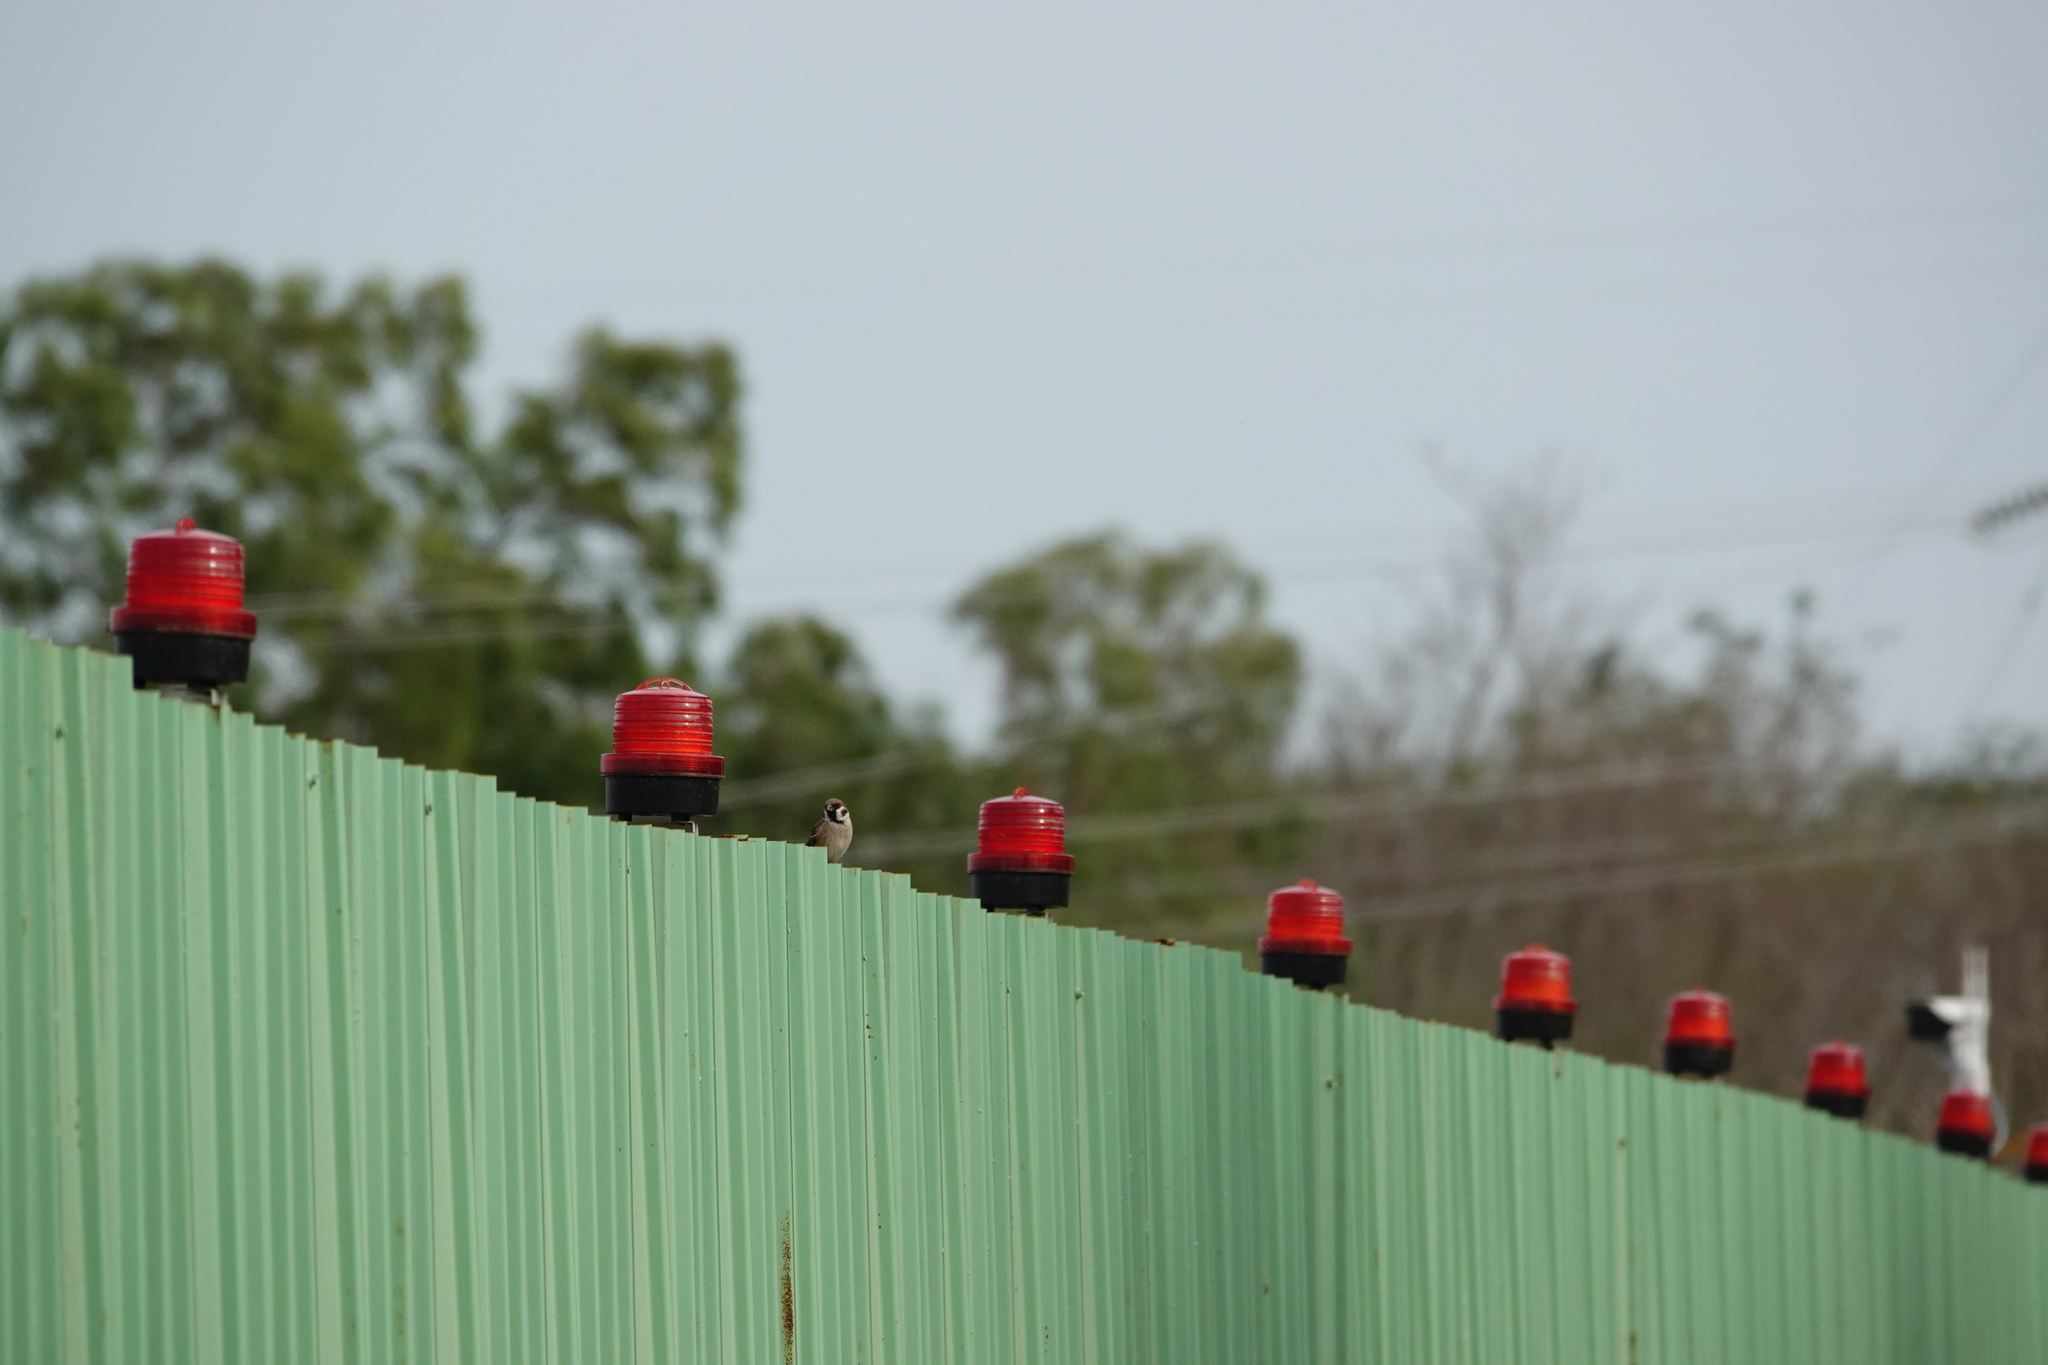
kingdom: Animalia
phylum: Chordata
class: Aves
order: Passeriformes
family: Passeridae
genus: Passer
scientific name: Passer montanus
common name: Eurasian tree sparrow
